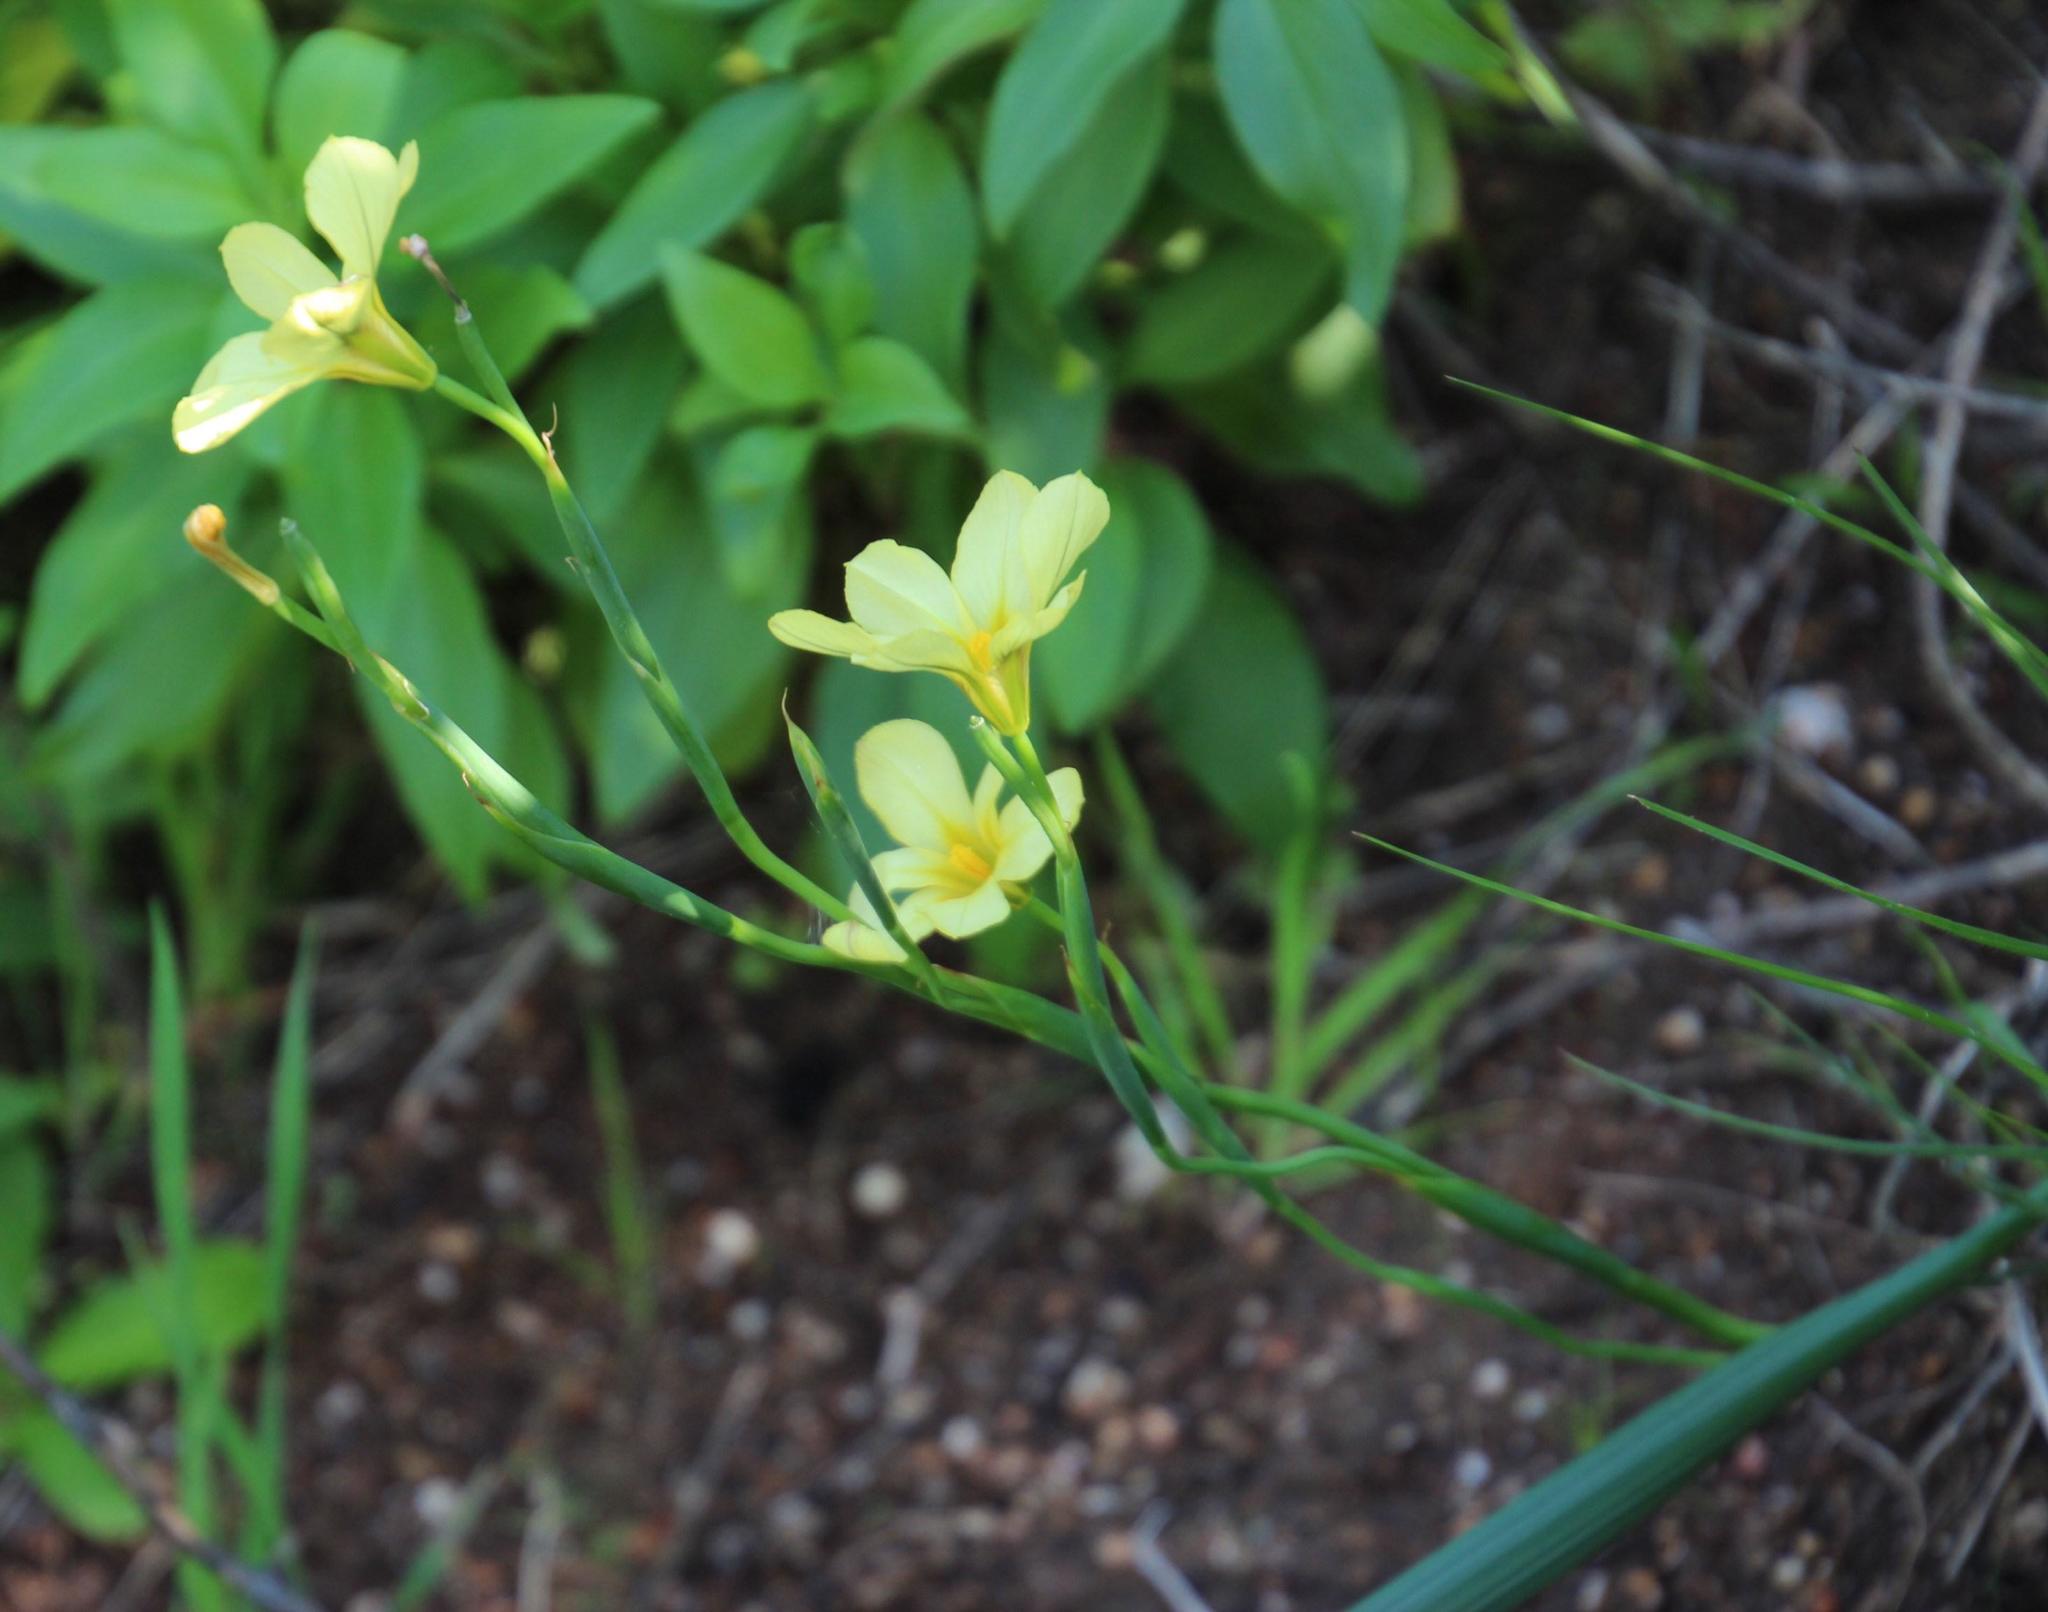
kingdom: Plantae
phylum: Tracheophyta
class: Liliopsida
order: Asparagales
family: Iridaceae
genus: Moraea
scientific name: Moraea flaccida
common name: One-leaf cape-tulip
